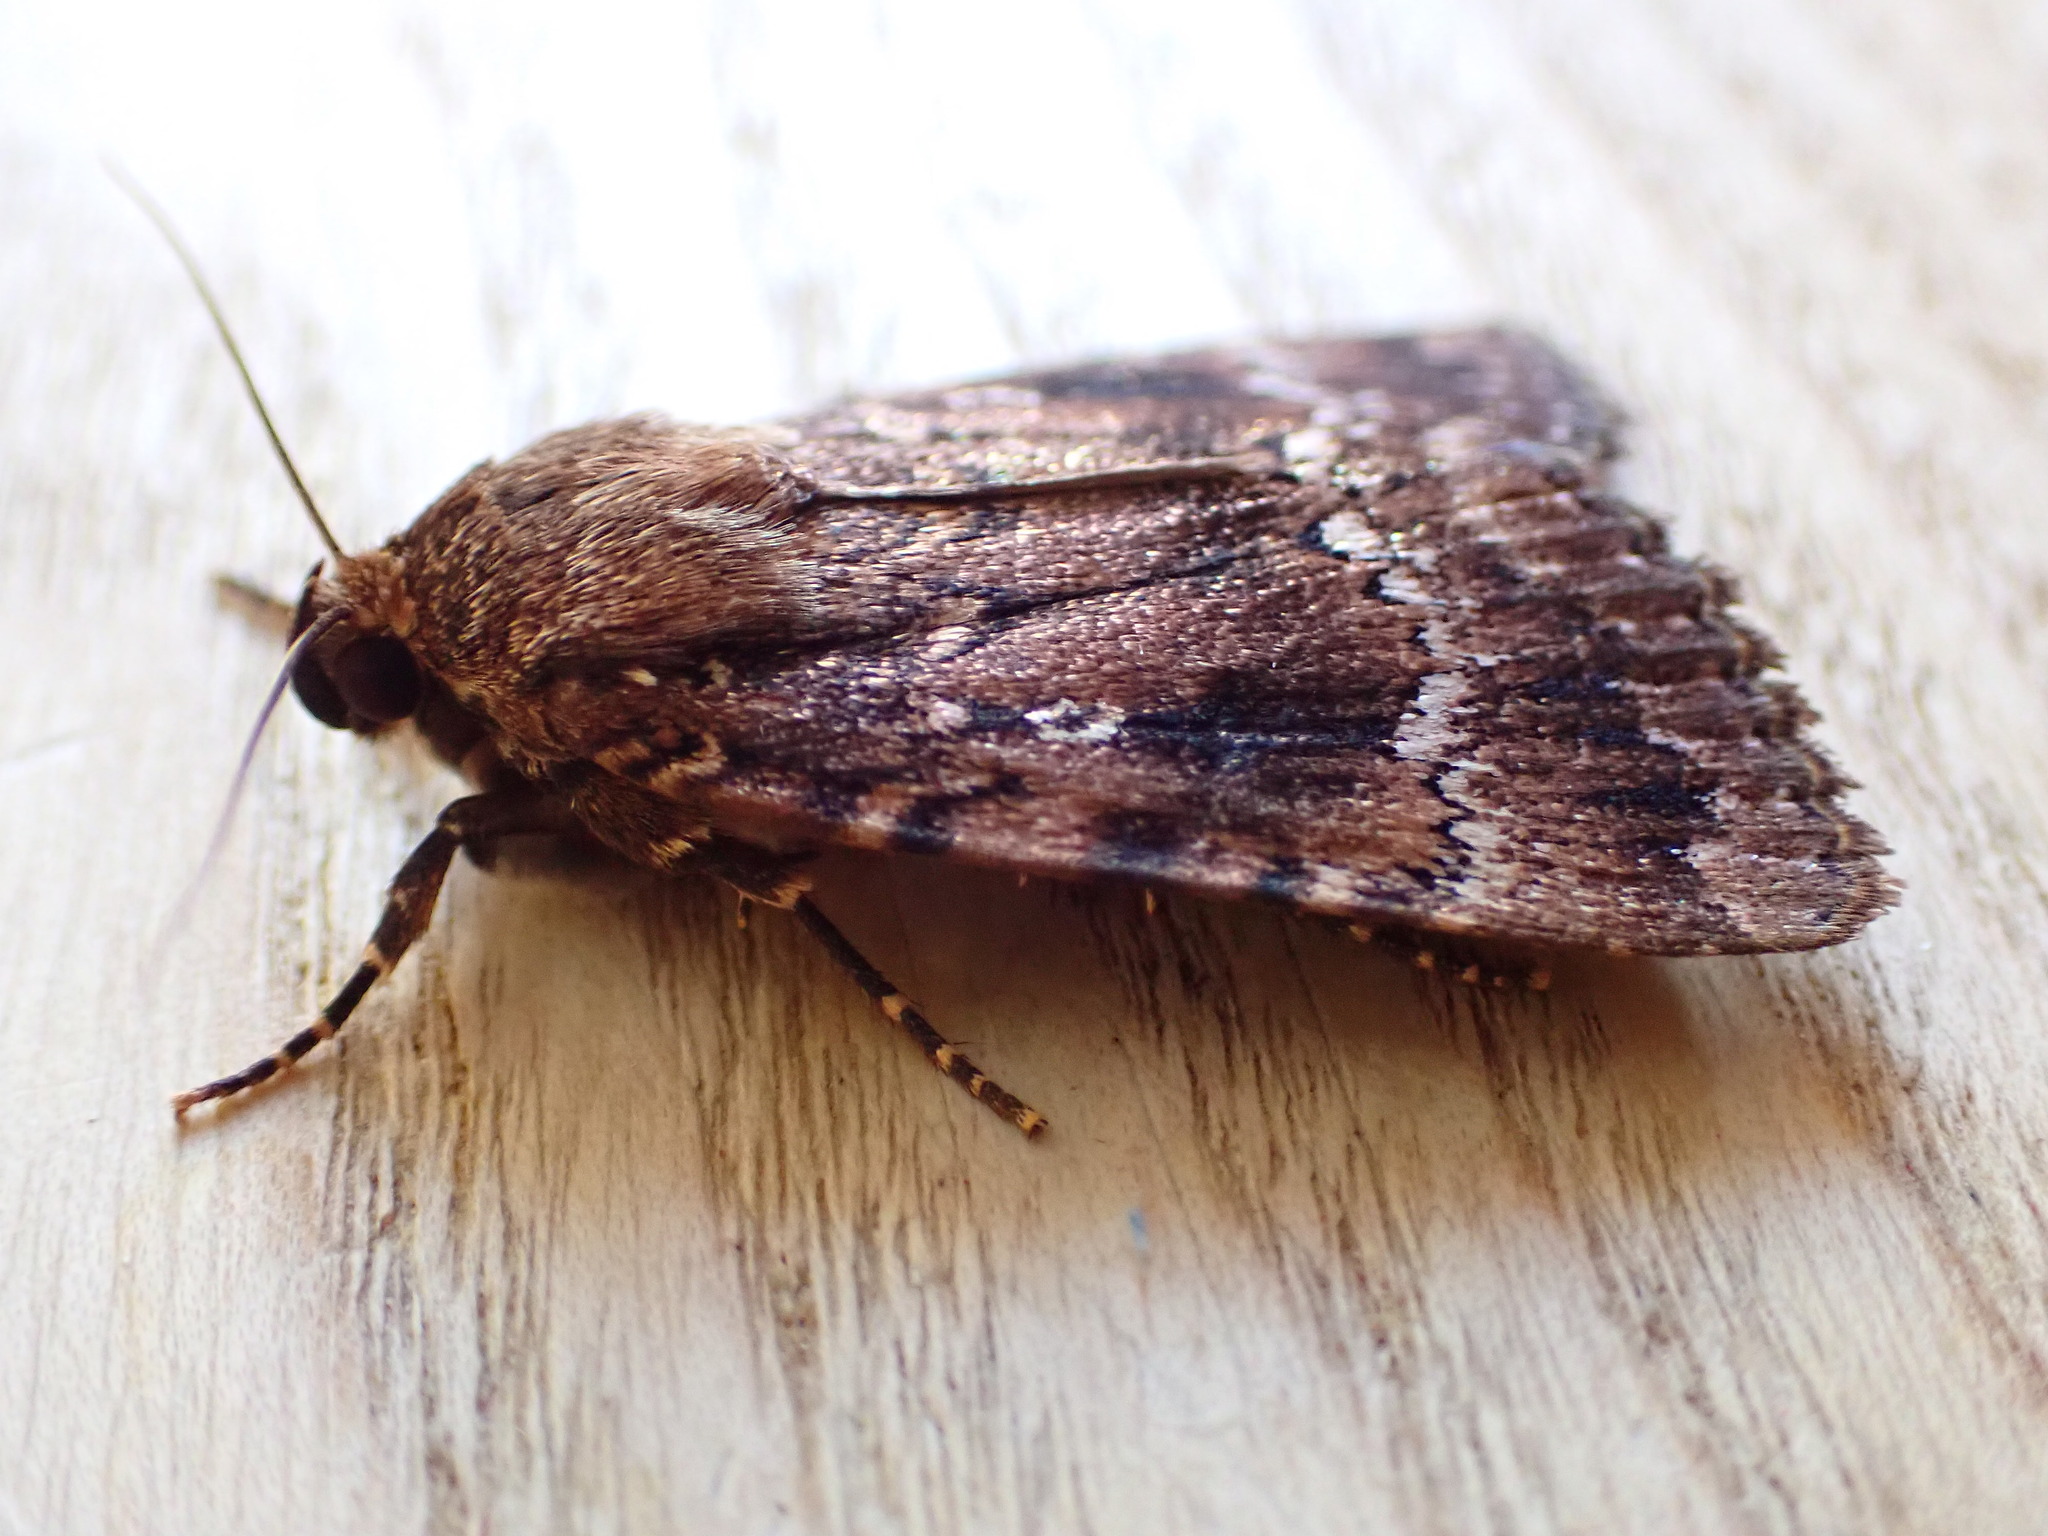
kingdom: Animalia
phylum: Arthropoda
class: Insecta
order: Lepidoptera
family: Noctuidae
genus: Amphipyra
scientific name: Amphipyra pyramidea
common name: Copper underwing
